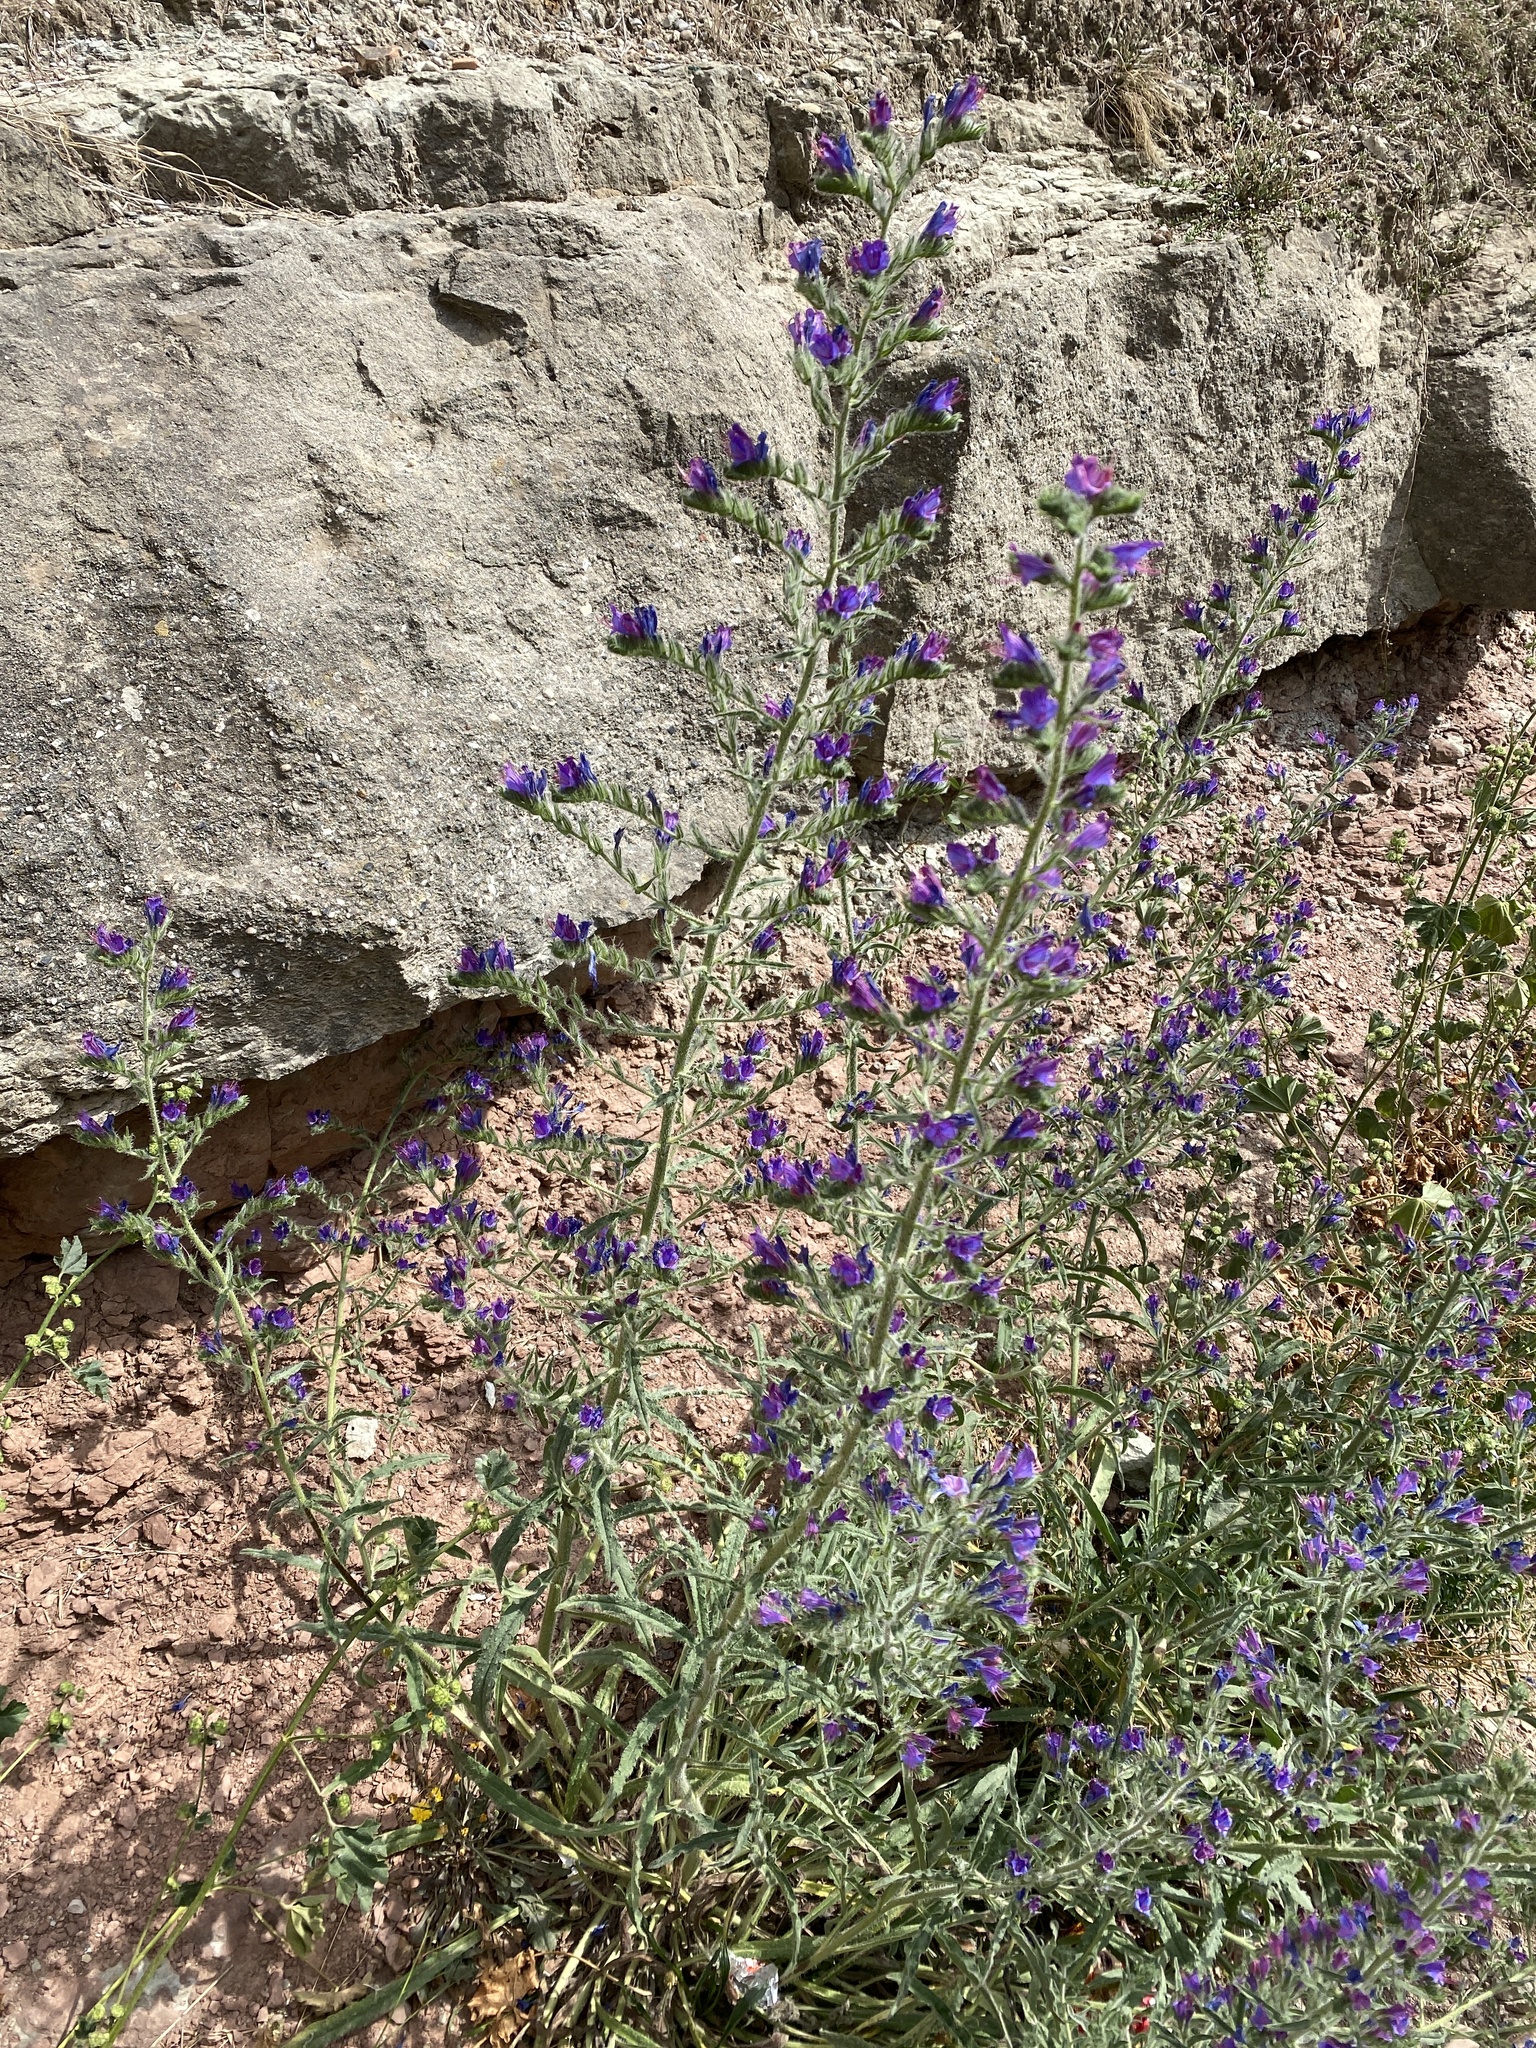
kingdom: Plantae
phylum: Tracheophyta
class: Magnoliopsida
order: Boraginales
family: Boraginaceae
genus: Echium
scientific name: Echium vulgare
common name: Common viper's bugloss
